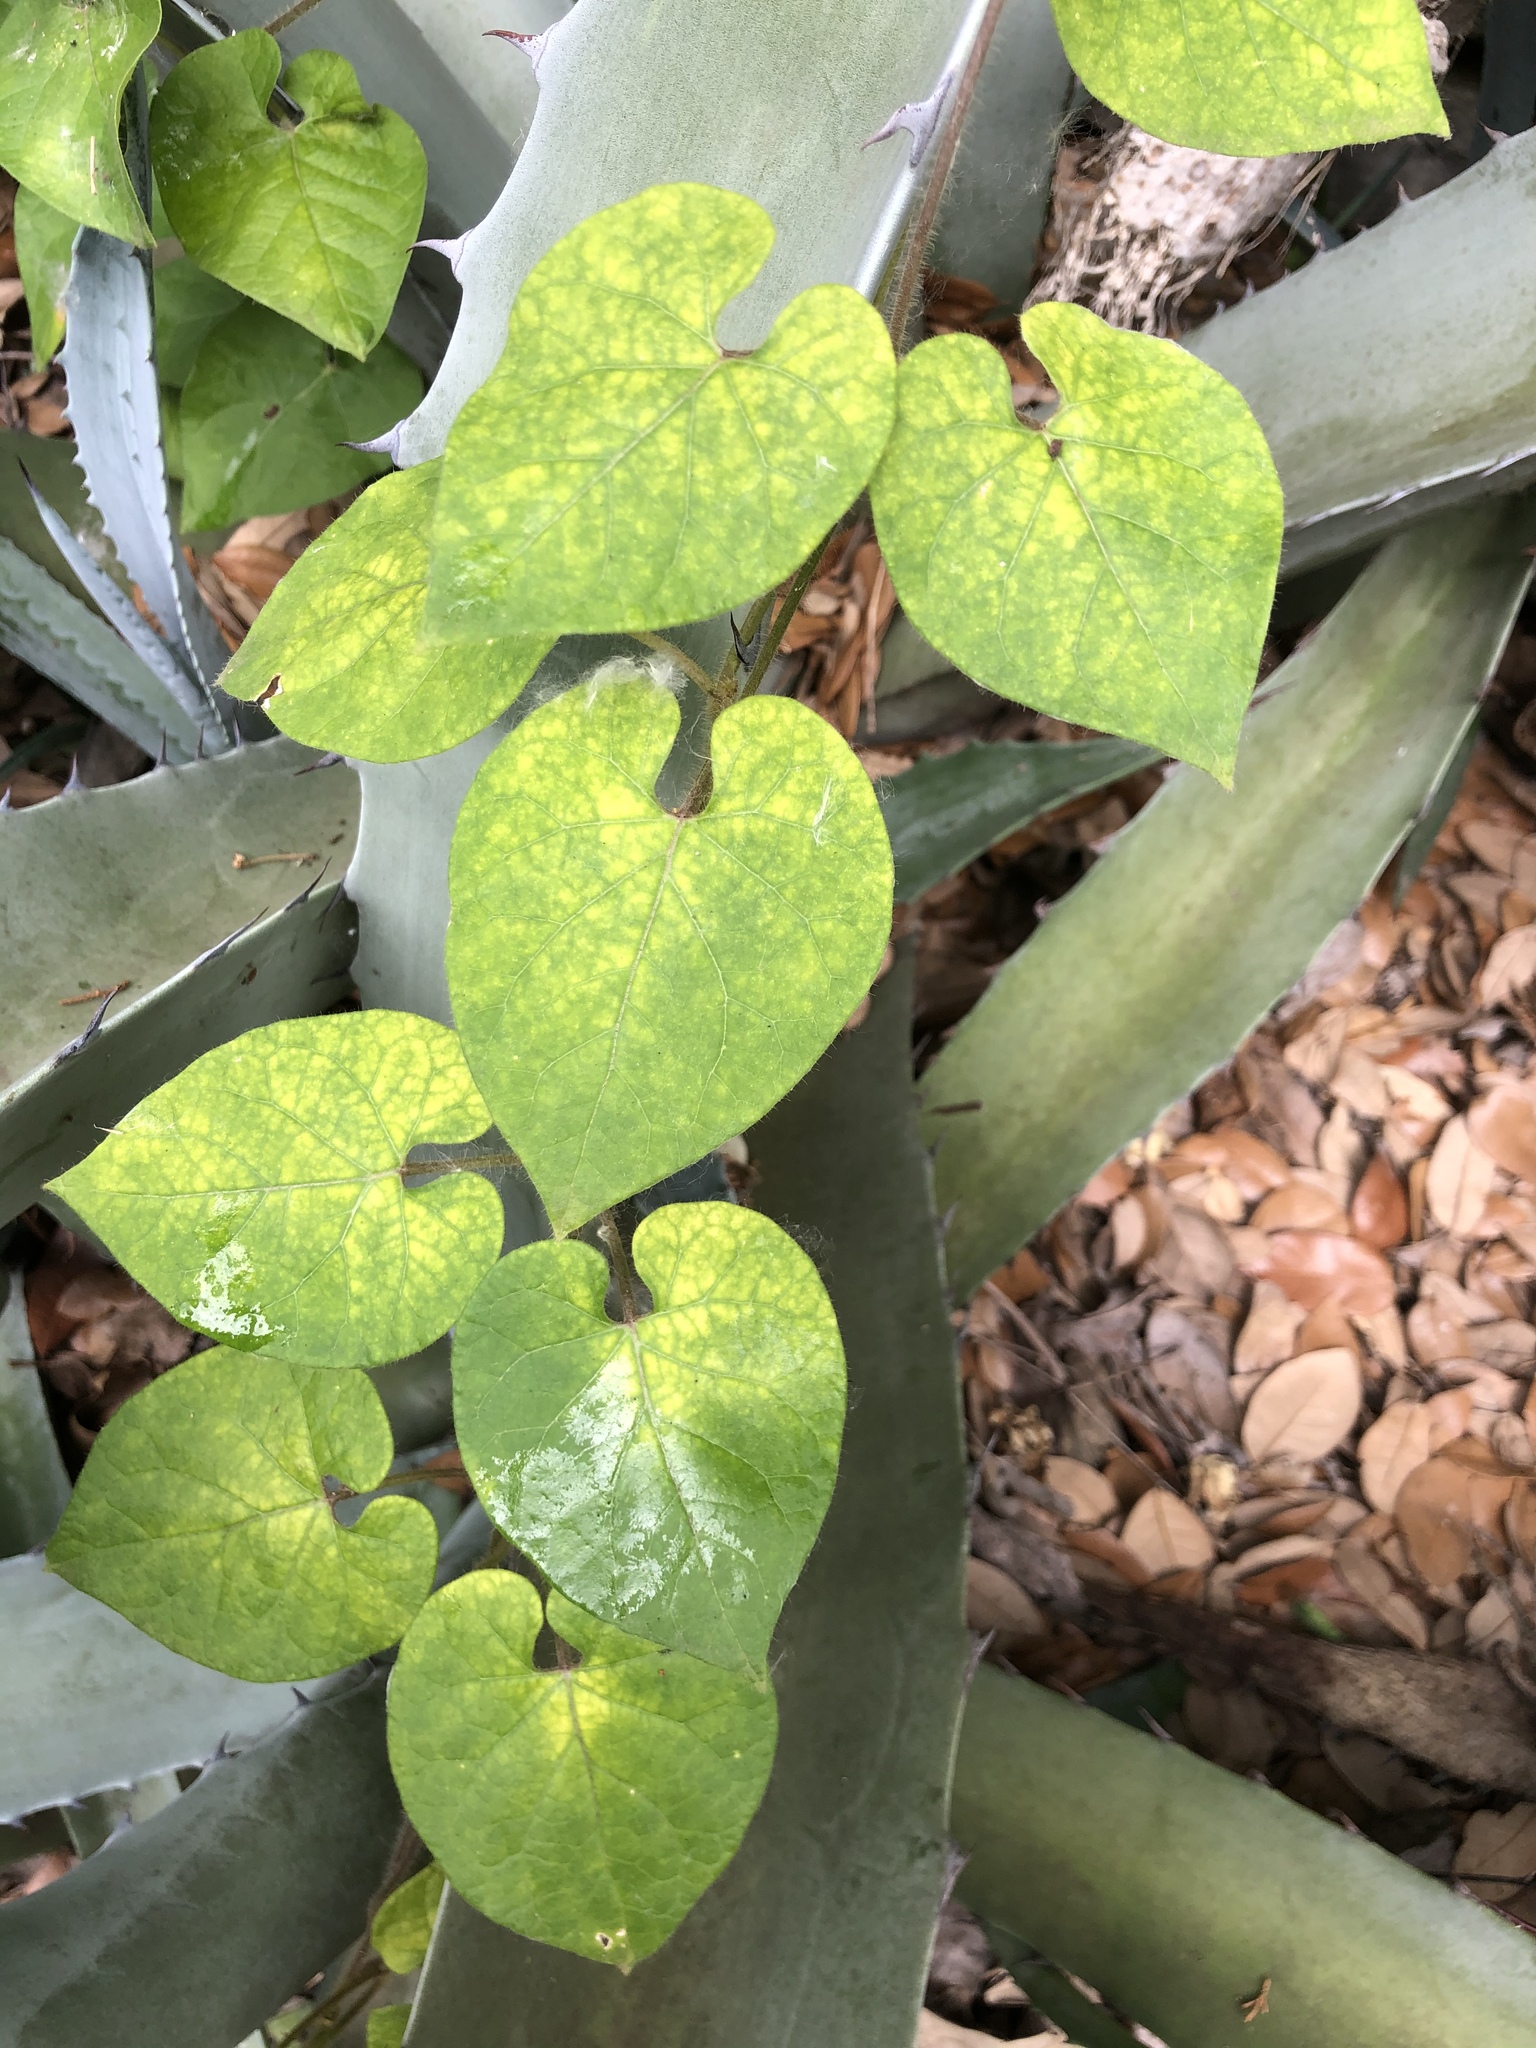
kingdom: Plantae
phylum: Tracheophyta
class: Magnoliopsida
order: Gentianales
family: Apocynaceae
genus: Funastrum
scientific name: Funastrum cynanchoides
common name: Climbing-milkweed
